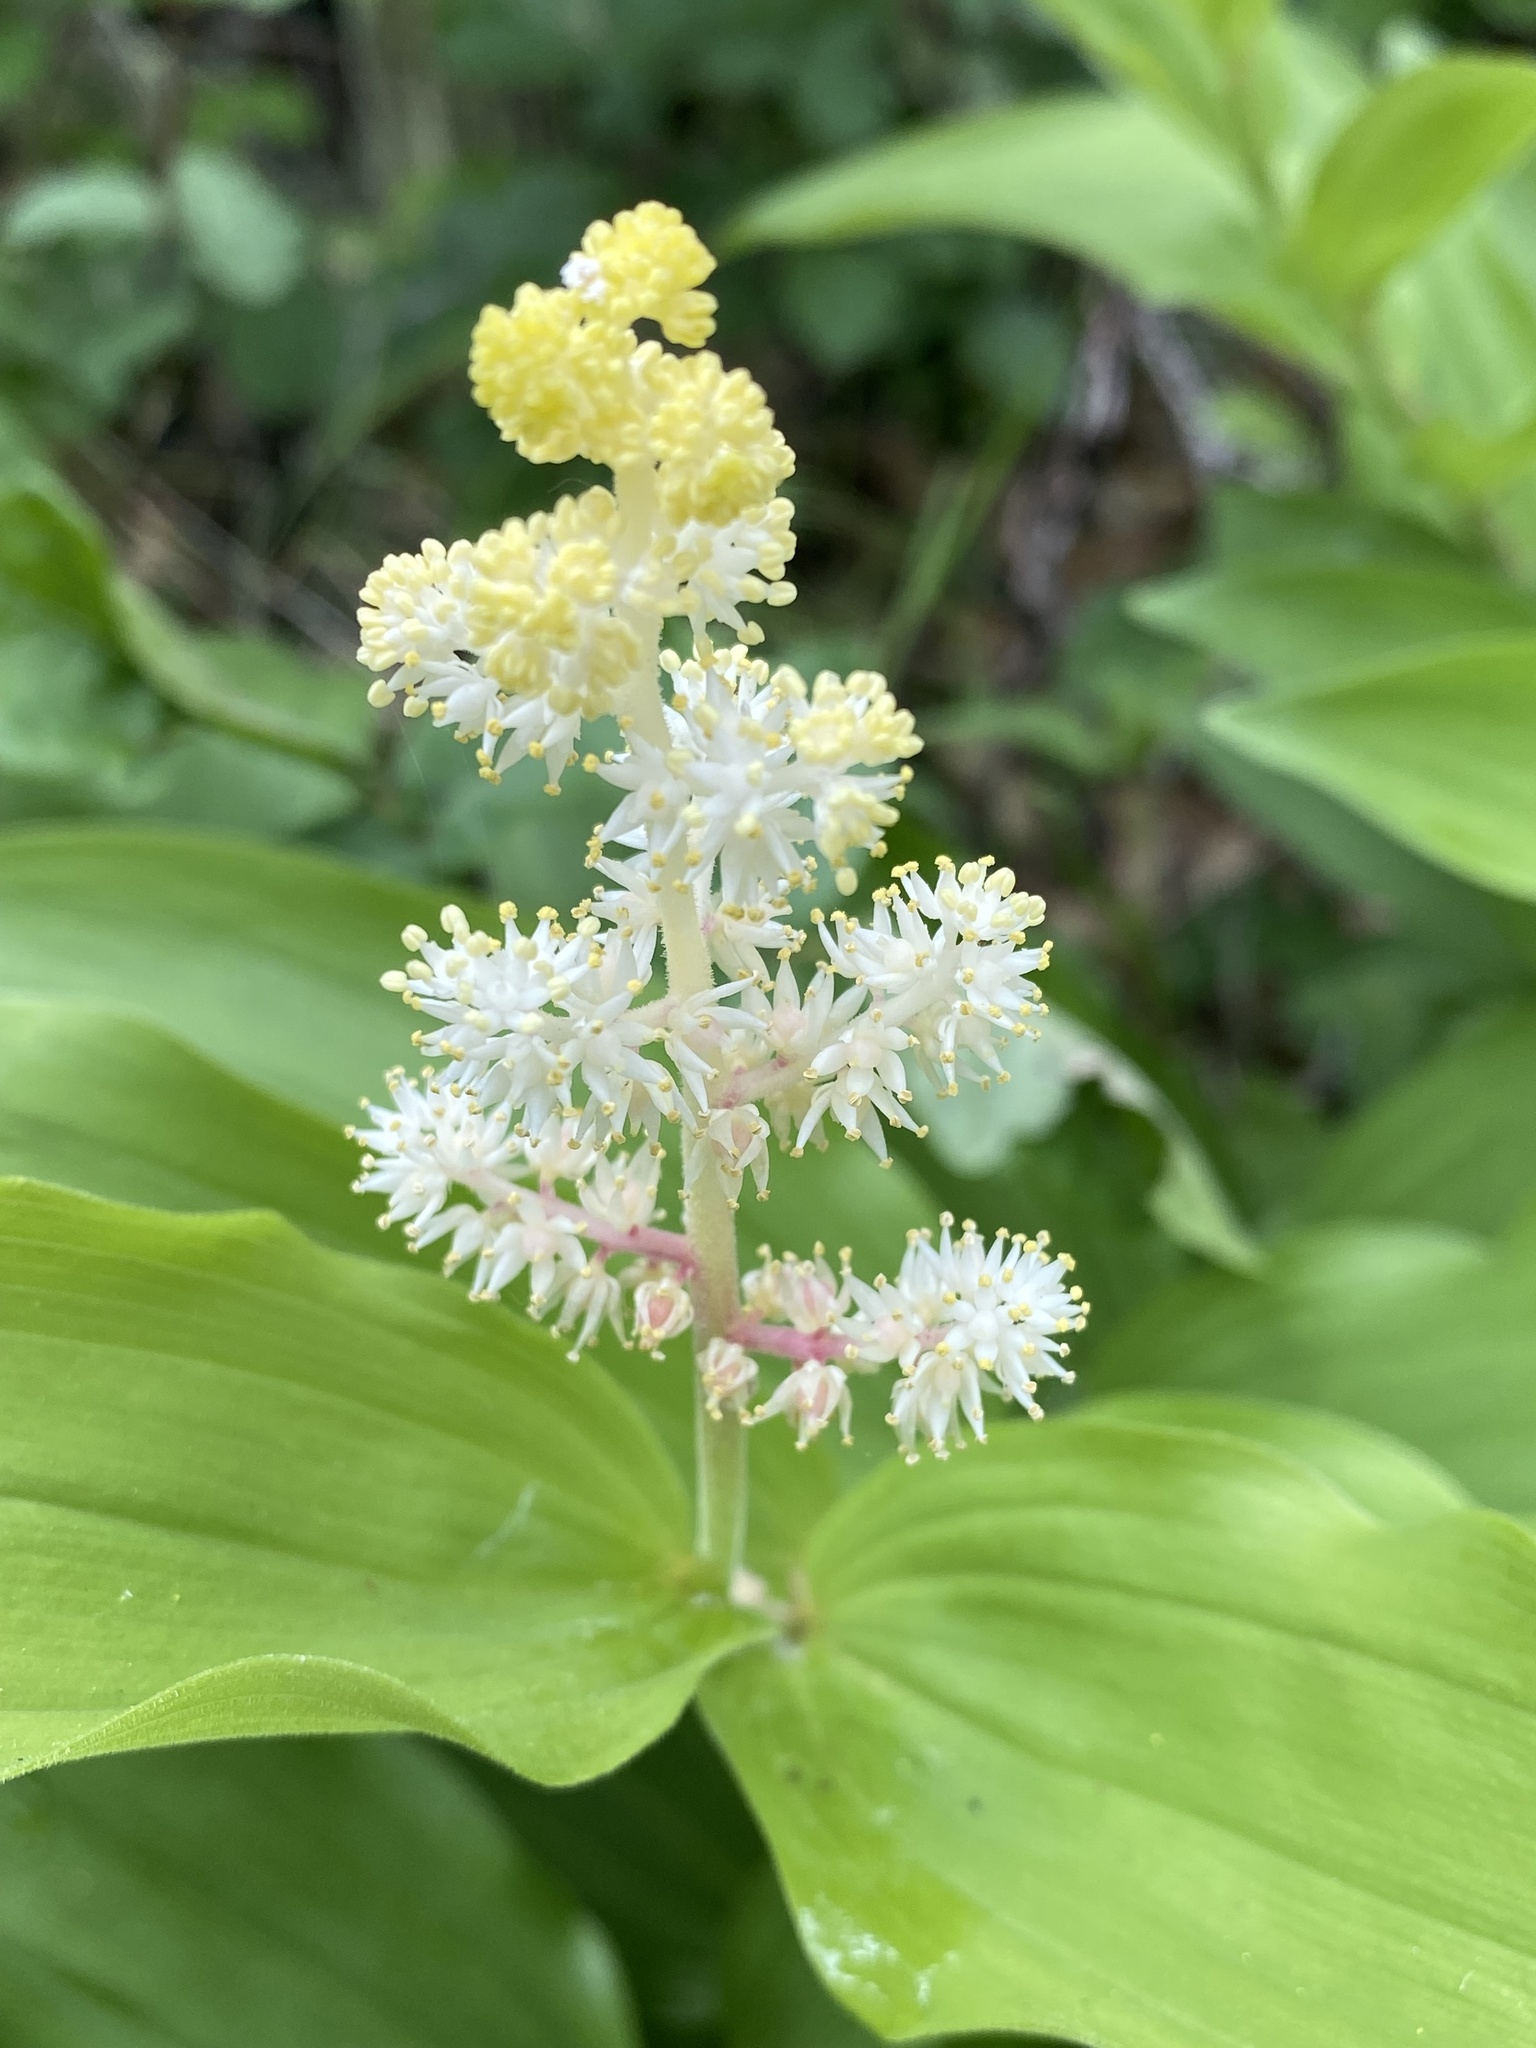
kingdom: Plantae
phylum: Tracheophyta
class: Liliopsida
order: Asparagales
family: Asparagaceae
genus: Maianthemum
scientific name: Maianthemum racemosum
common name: False spikenard
